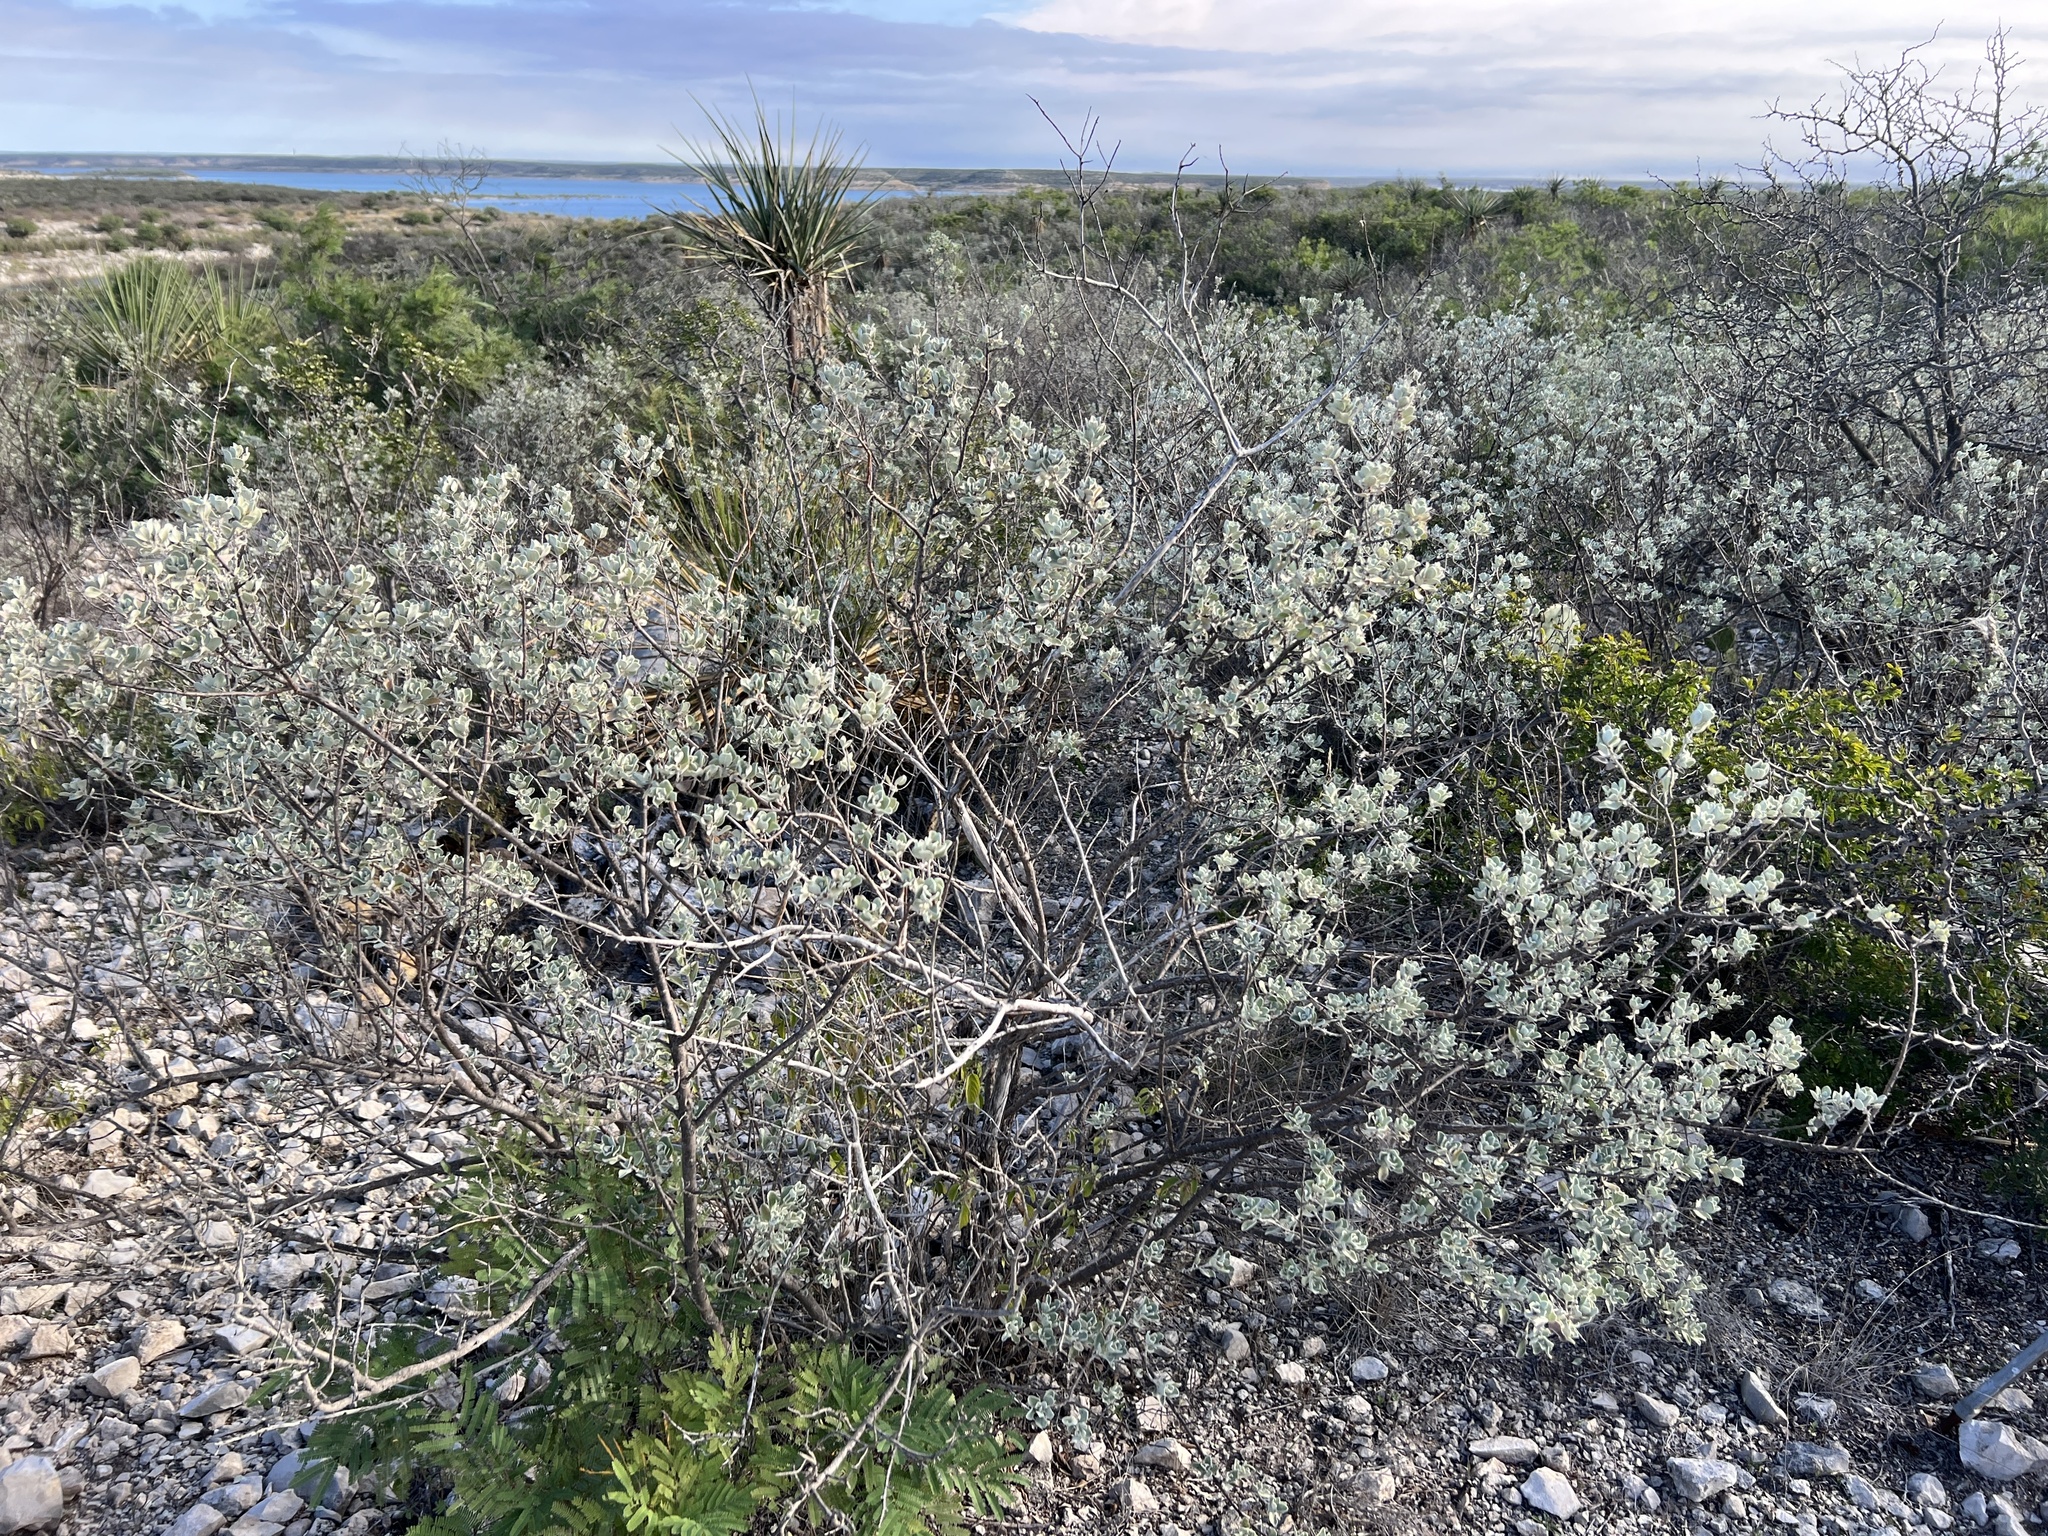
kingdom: Plantae
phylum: Tracheophyta
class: Magnoliopsida
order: Lamiales
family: Scrophulariaceae
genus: Leucophyllum
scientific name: Leucophyllum frutescens
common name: Texas silverleaf
